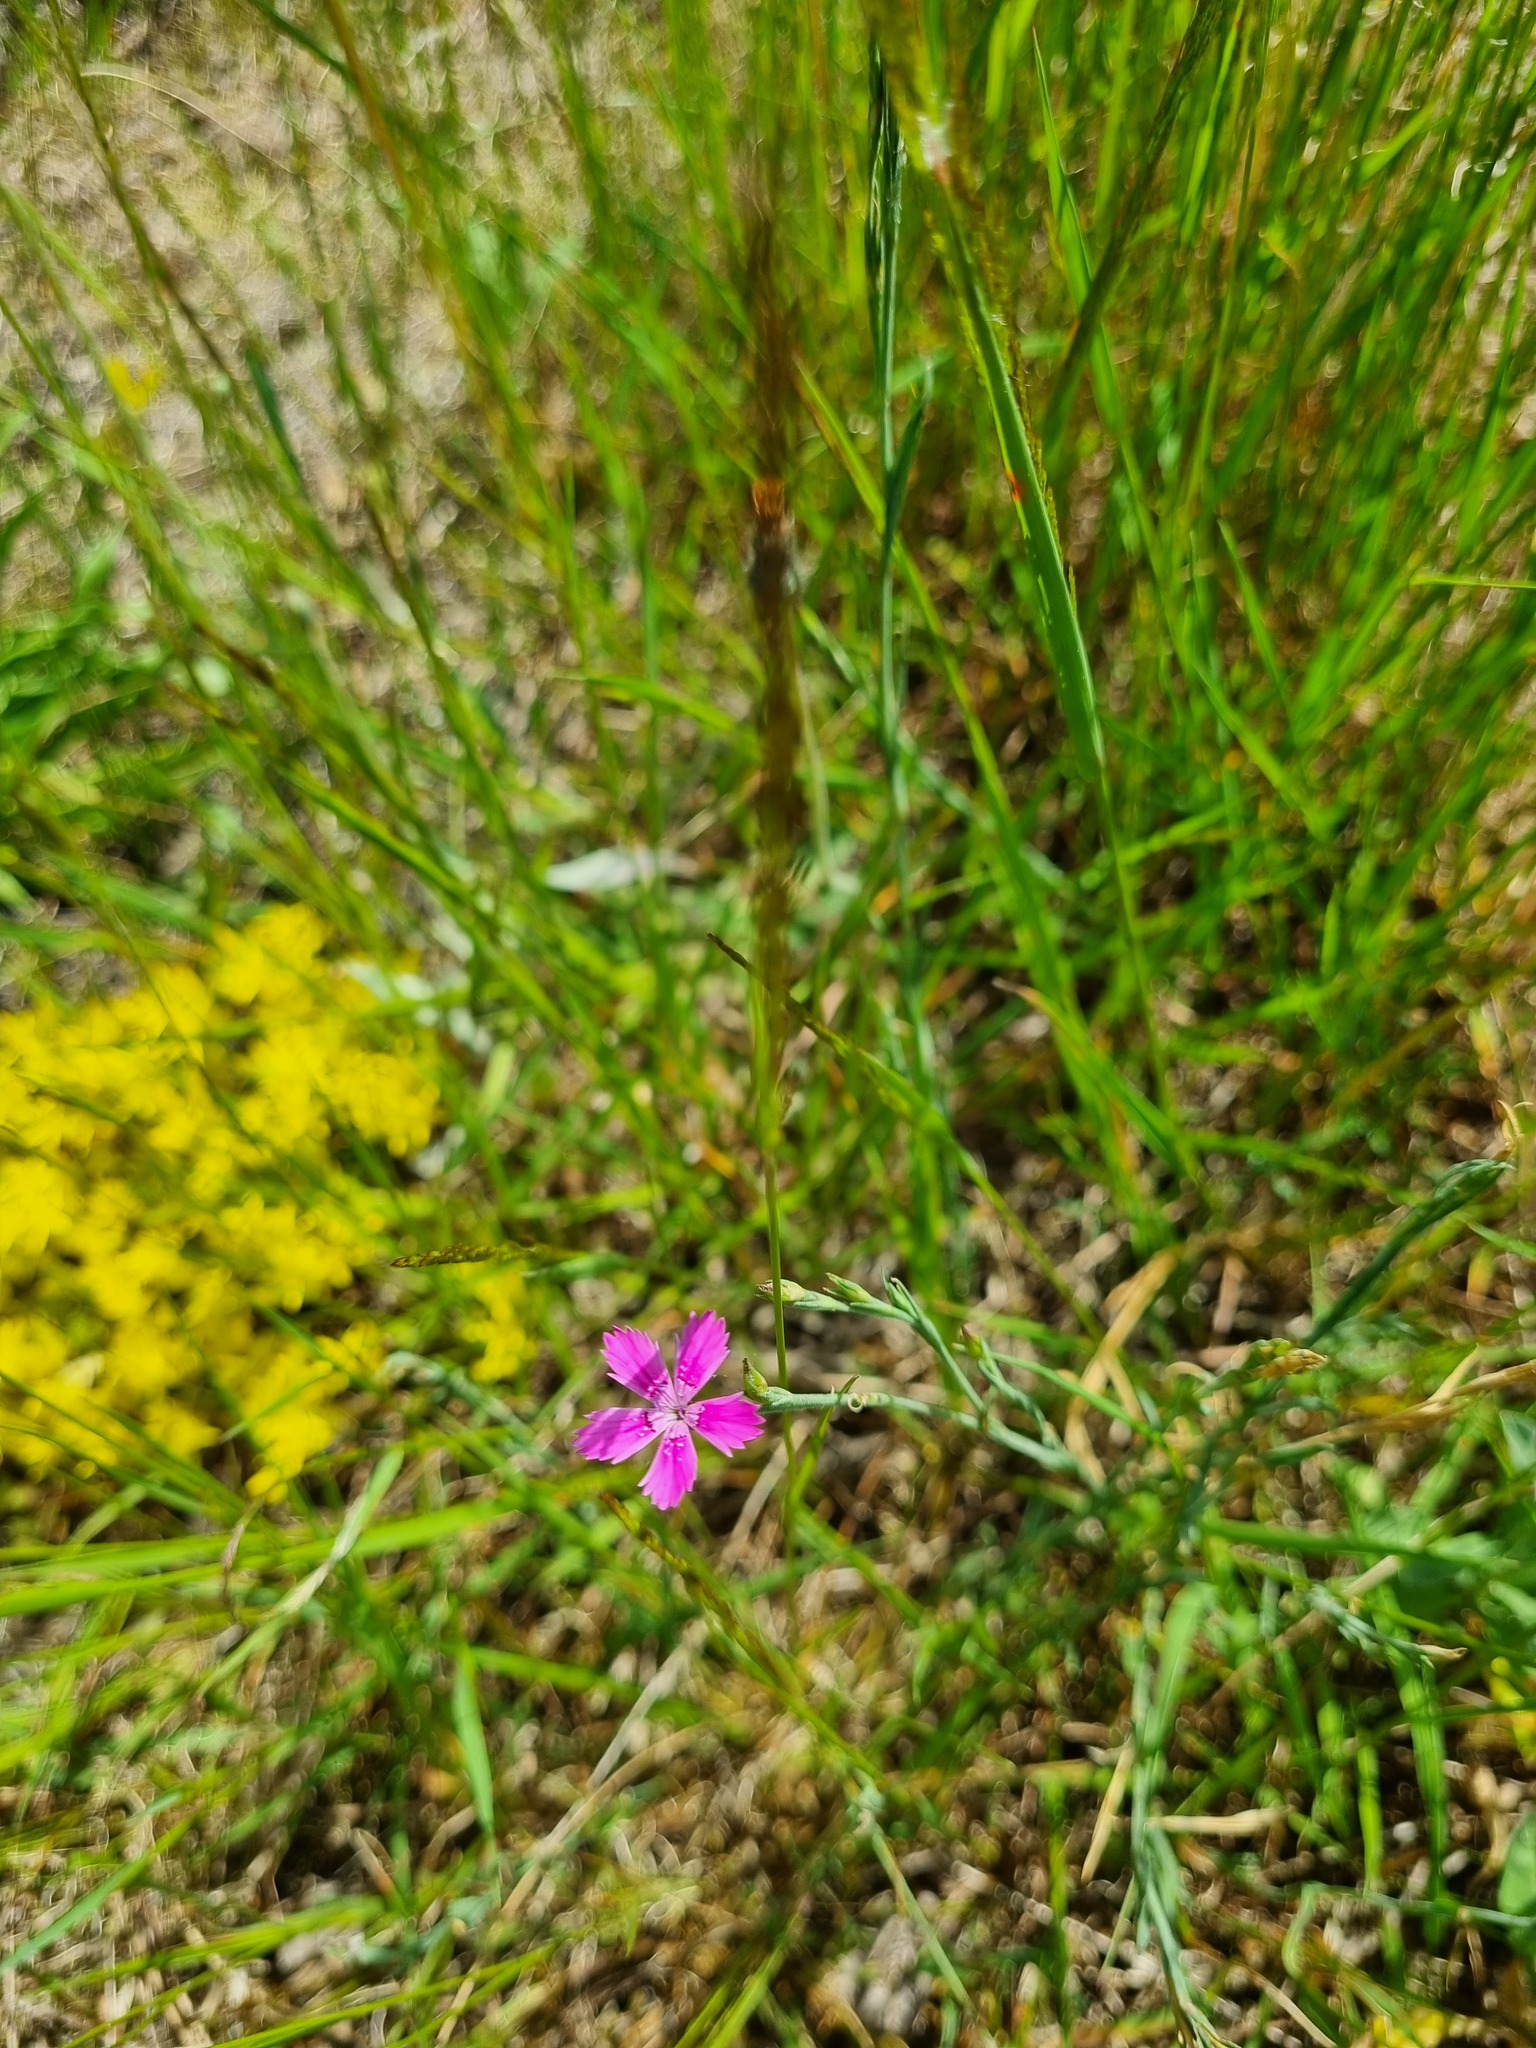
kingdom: Plantae
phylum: Tracheophyta
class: Magnoliopsida
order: Caryophyllales
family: Caryophyllaceae
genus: Dianthus
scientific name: Dianthus deltoides
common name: Maiden pink
